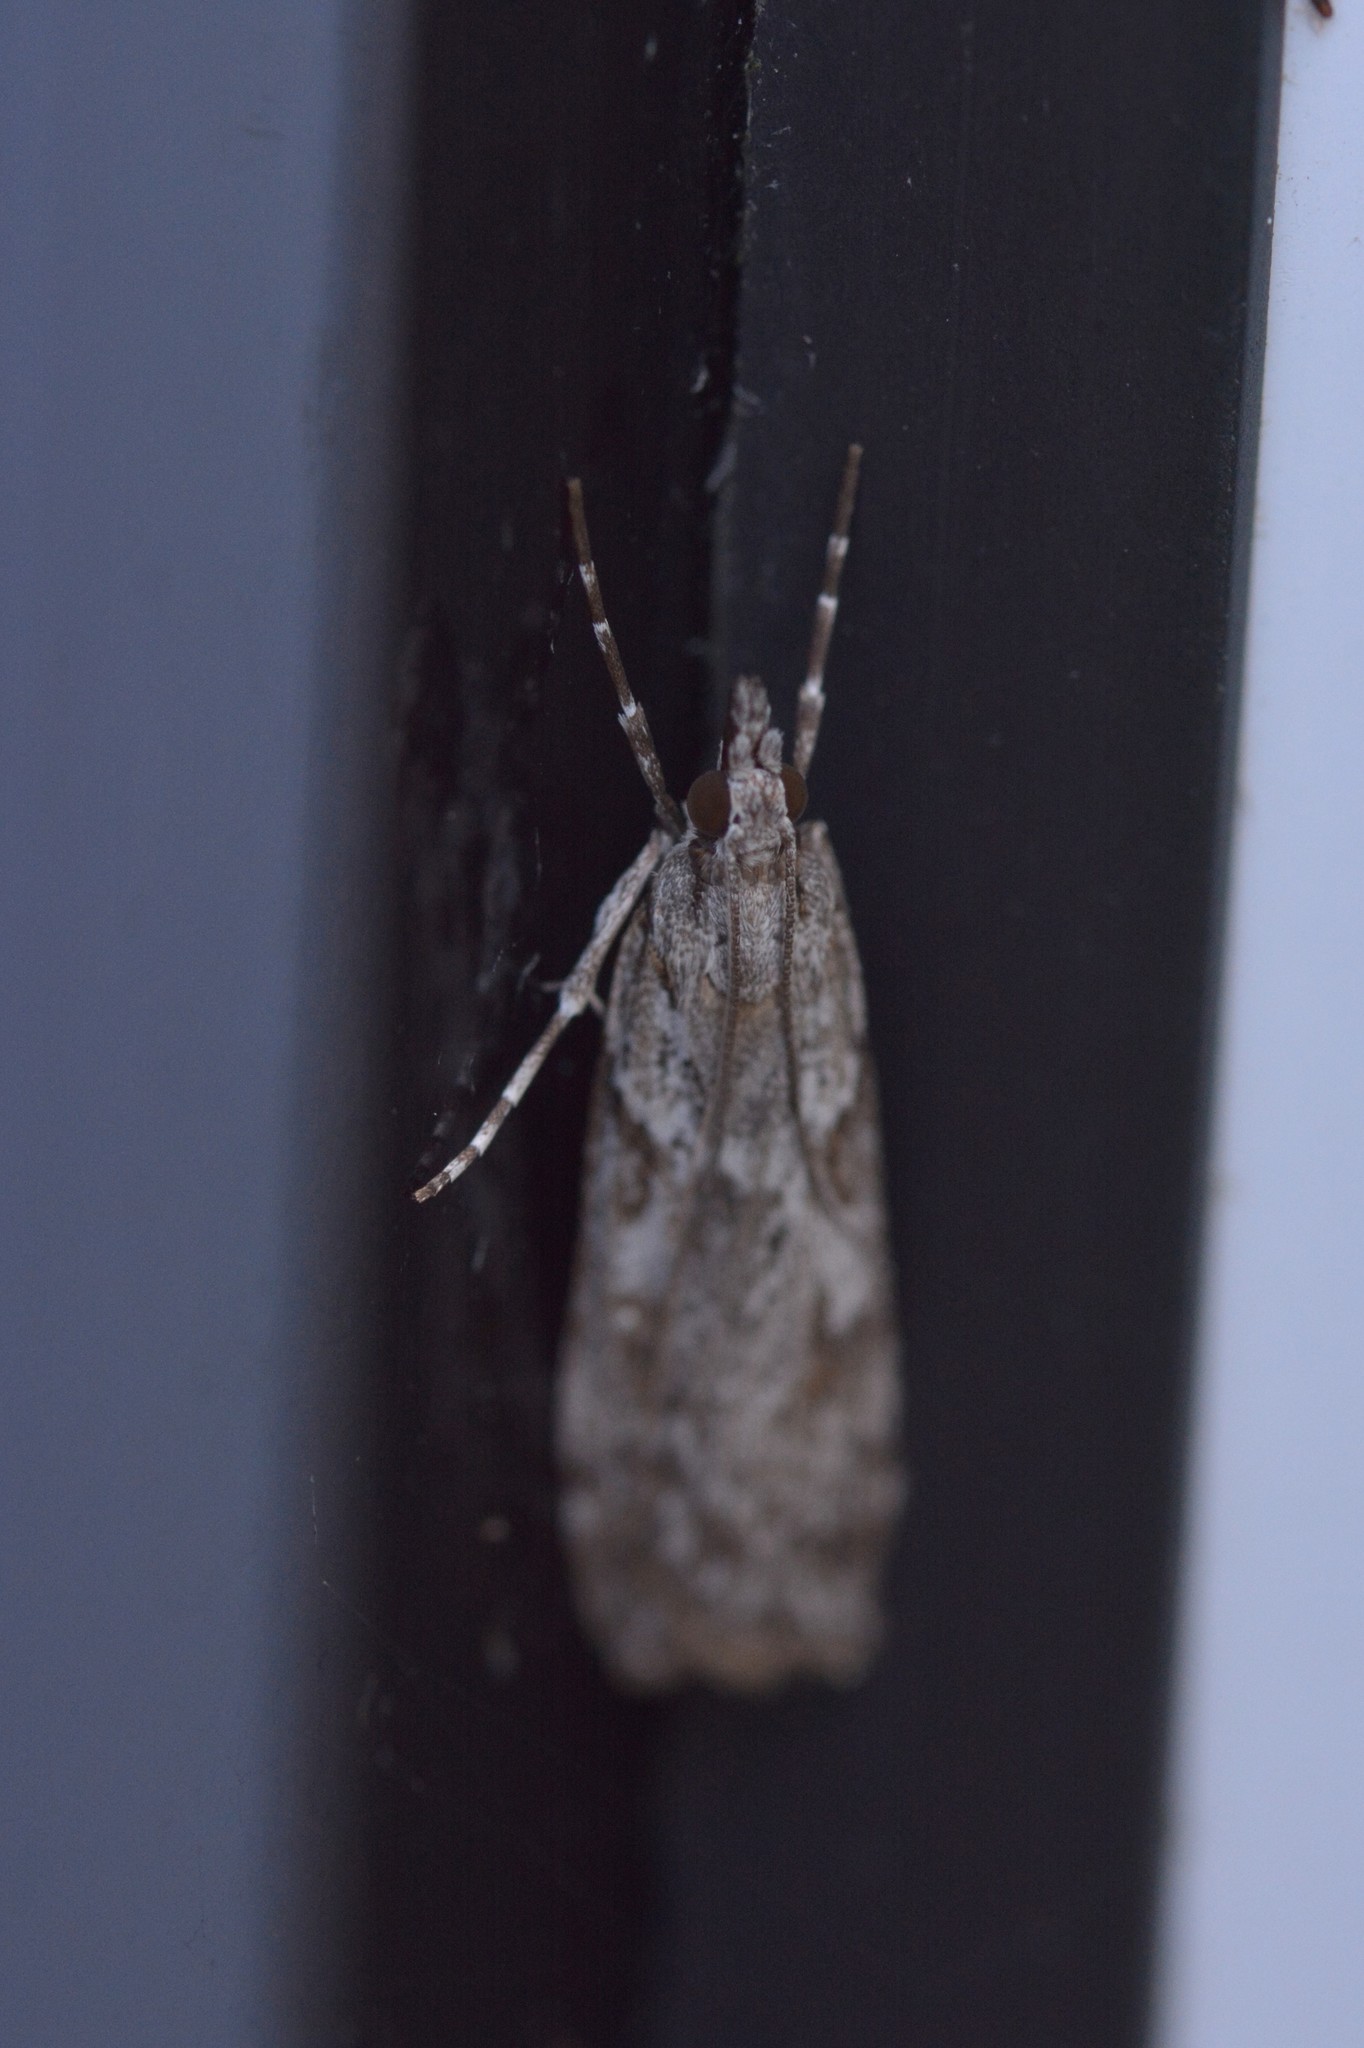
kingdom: Animalia
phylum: Arthropoda
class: Insecta
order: Lepidoptera
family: Crambidae
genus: Scoparia
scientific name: Scoparia halopis
